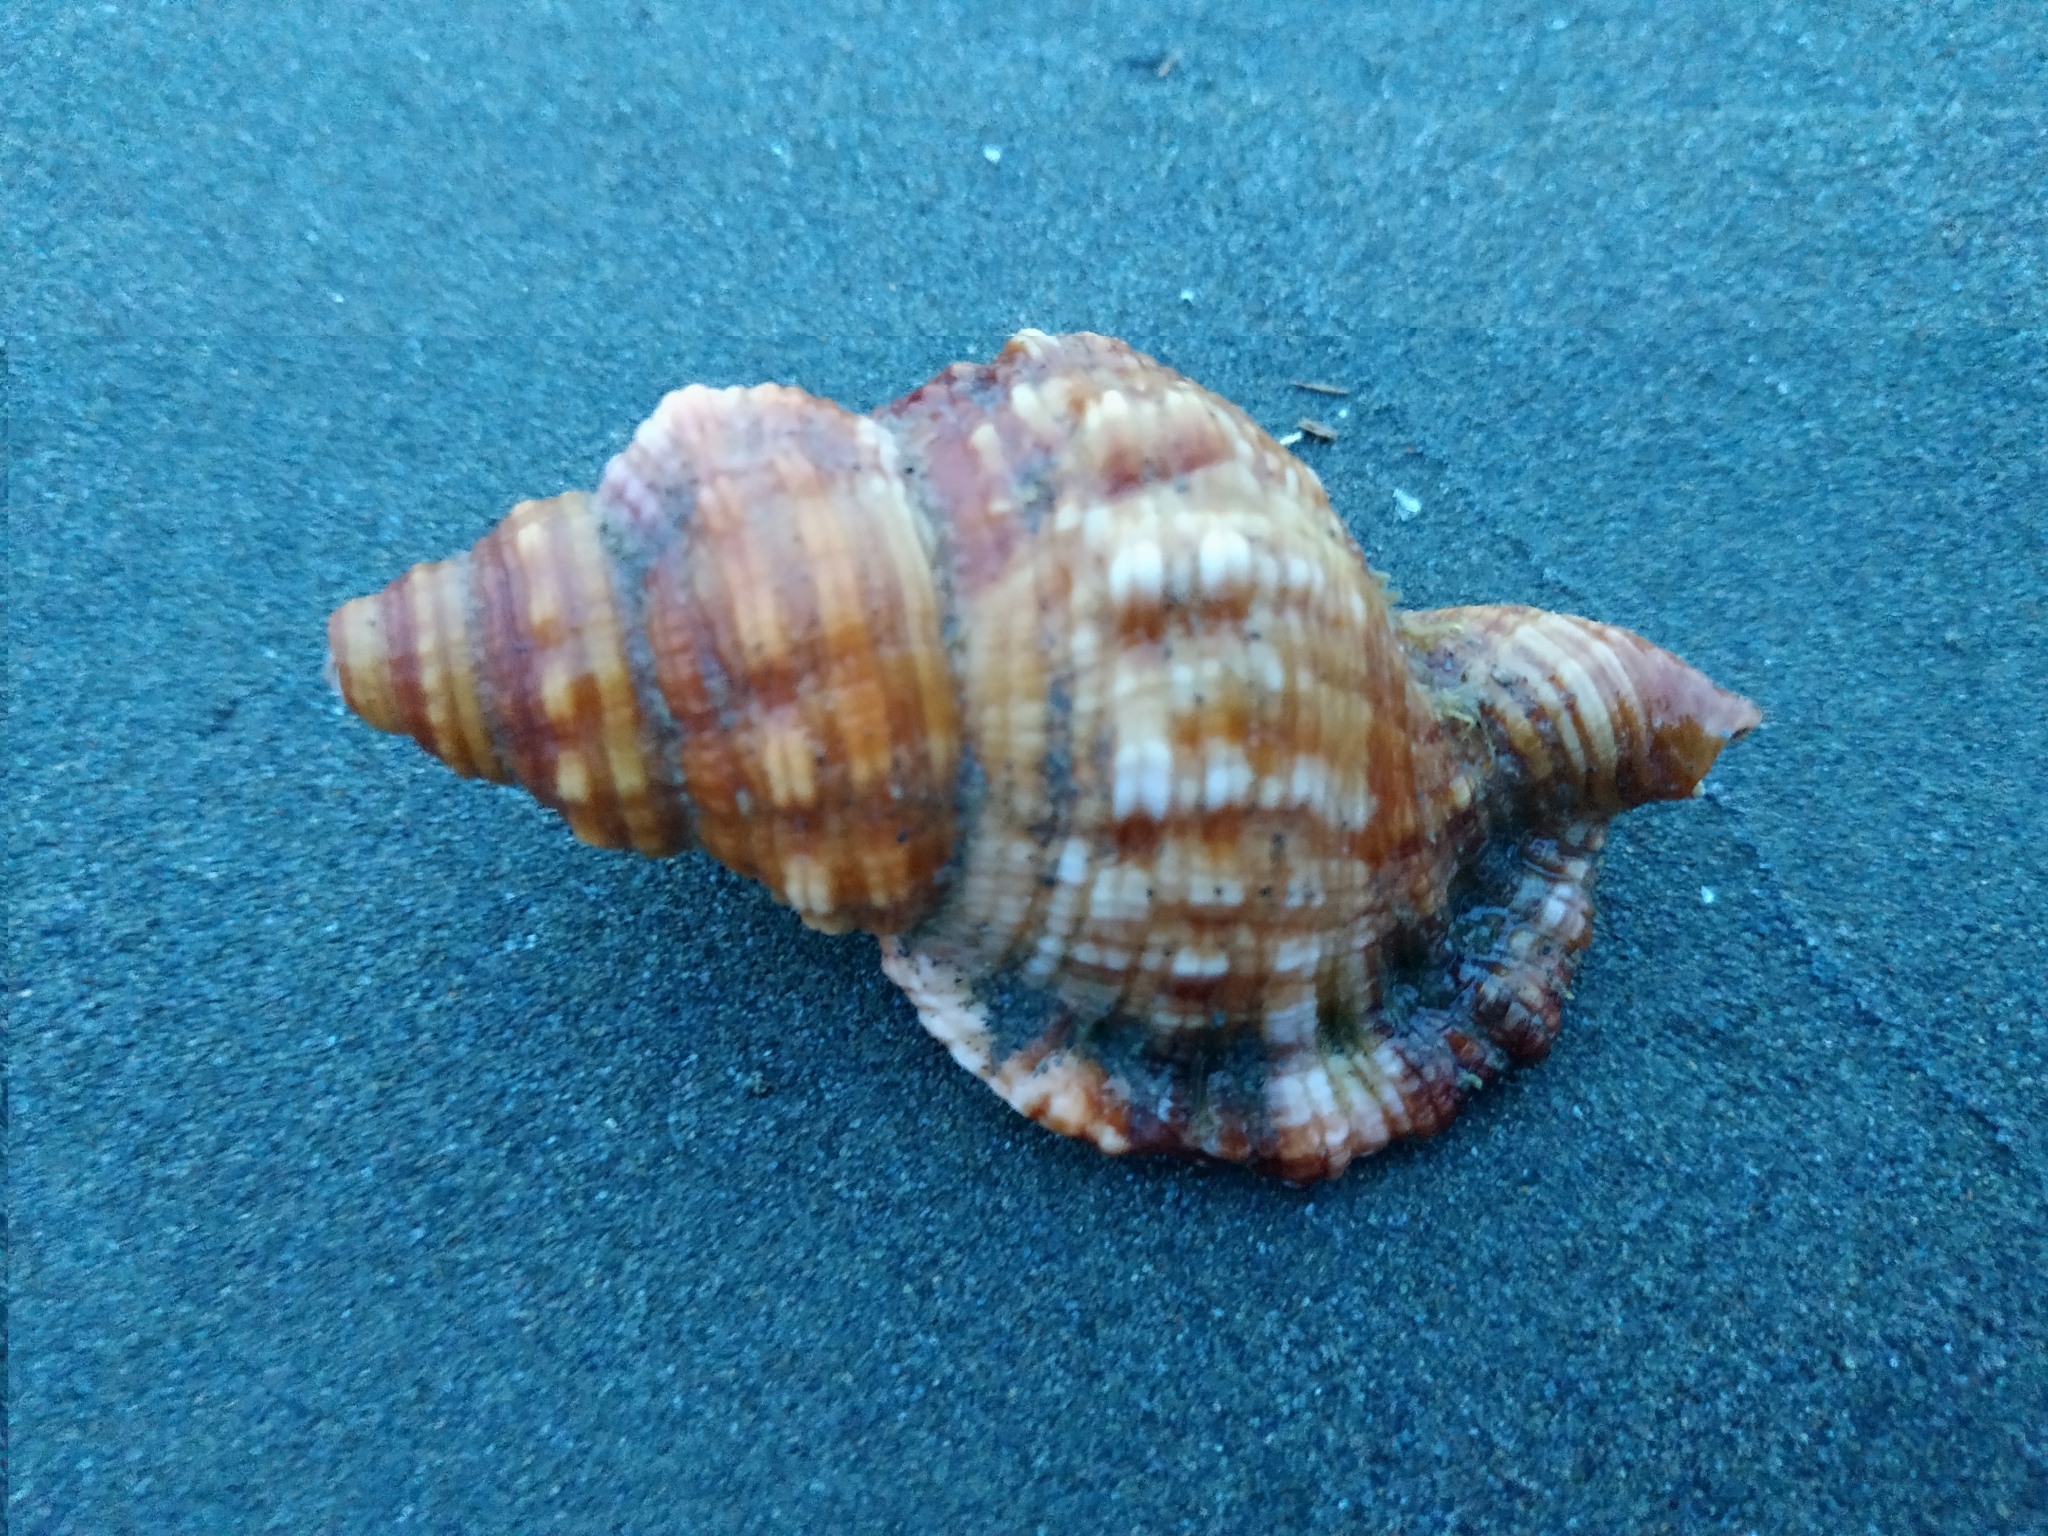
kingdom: Animalia
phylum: Mollusca
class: Gastropoda
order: Littorinimorpha
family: Cymatiidae
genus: Monoplex
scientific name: Monoplex aquatilis
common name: Aquatile hairy triton
